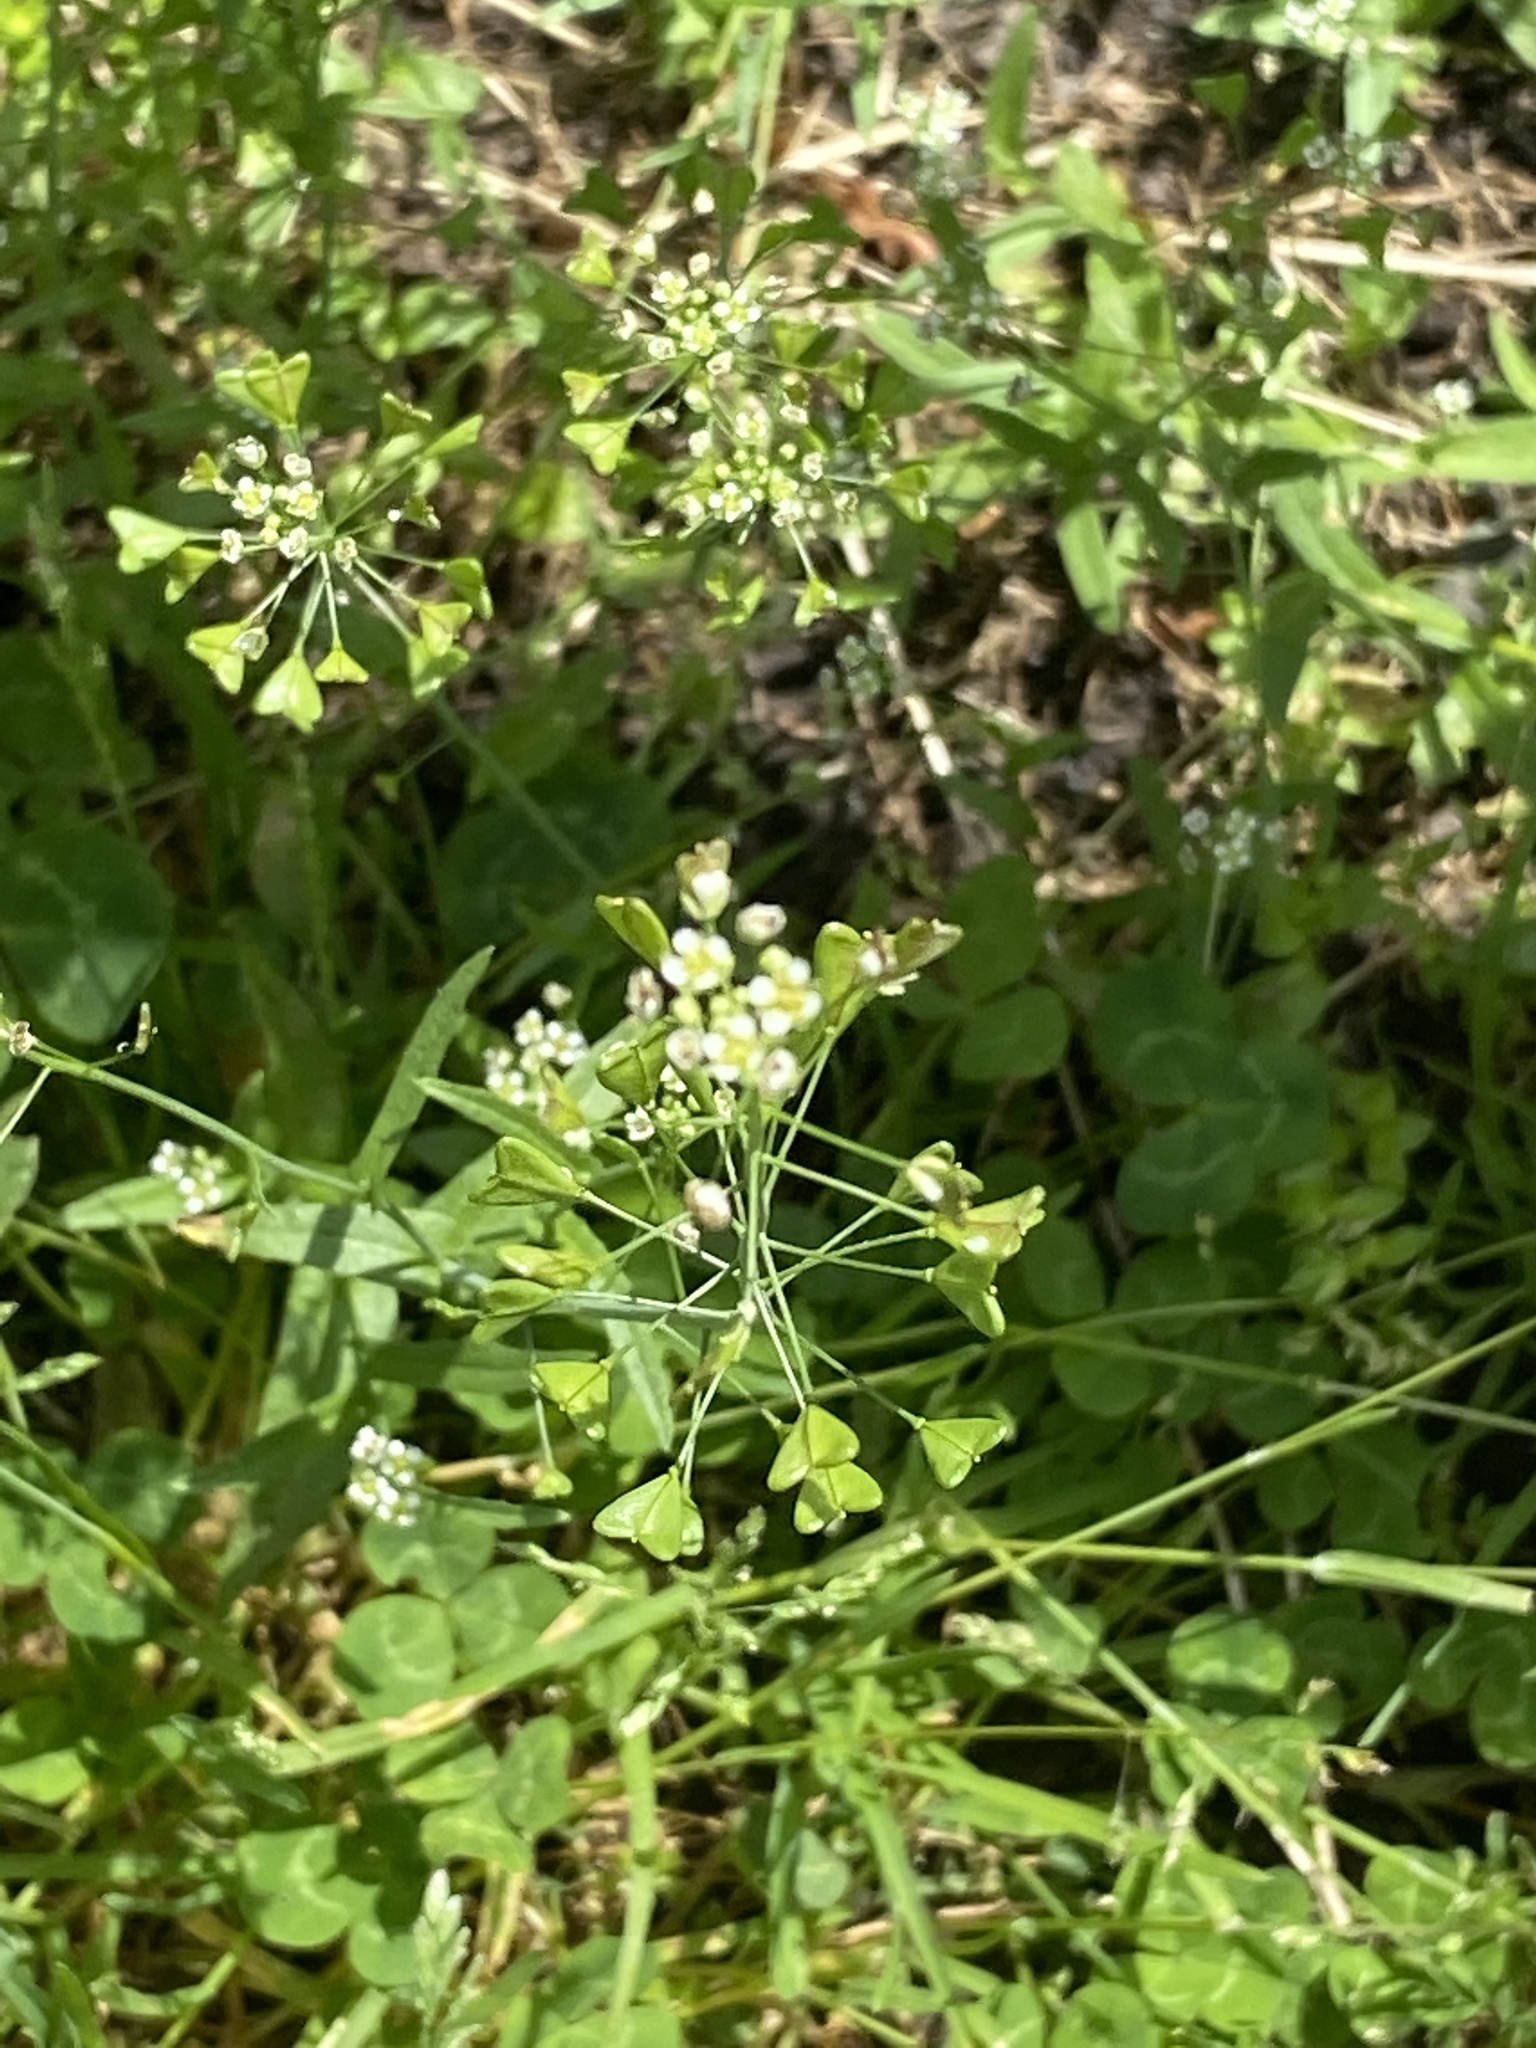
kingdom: Plantae
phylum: Tracheophyta
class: Magnoliopsida
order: Brassicales
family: Brassicaceae
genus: Capsella
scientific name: Capsella bursa-pastoris
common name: Shepherd's purse
